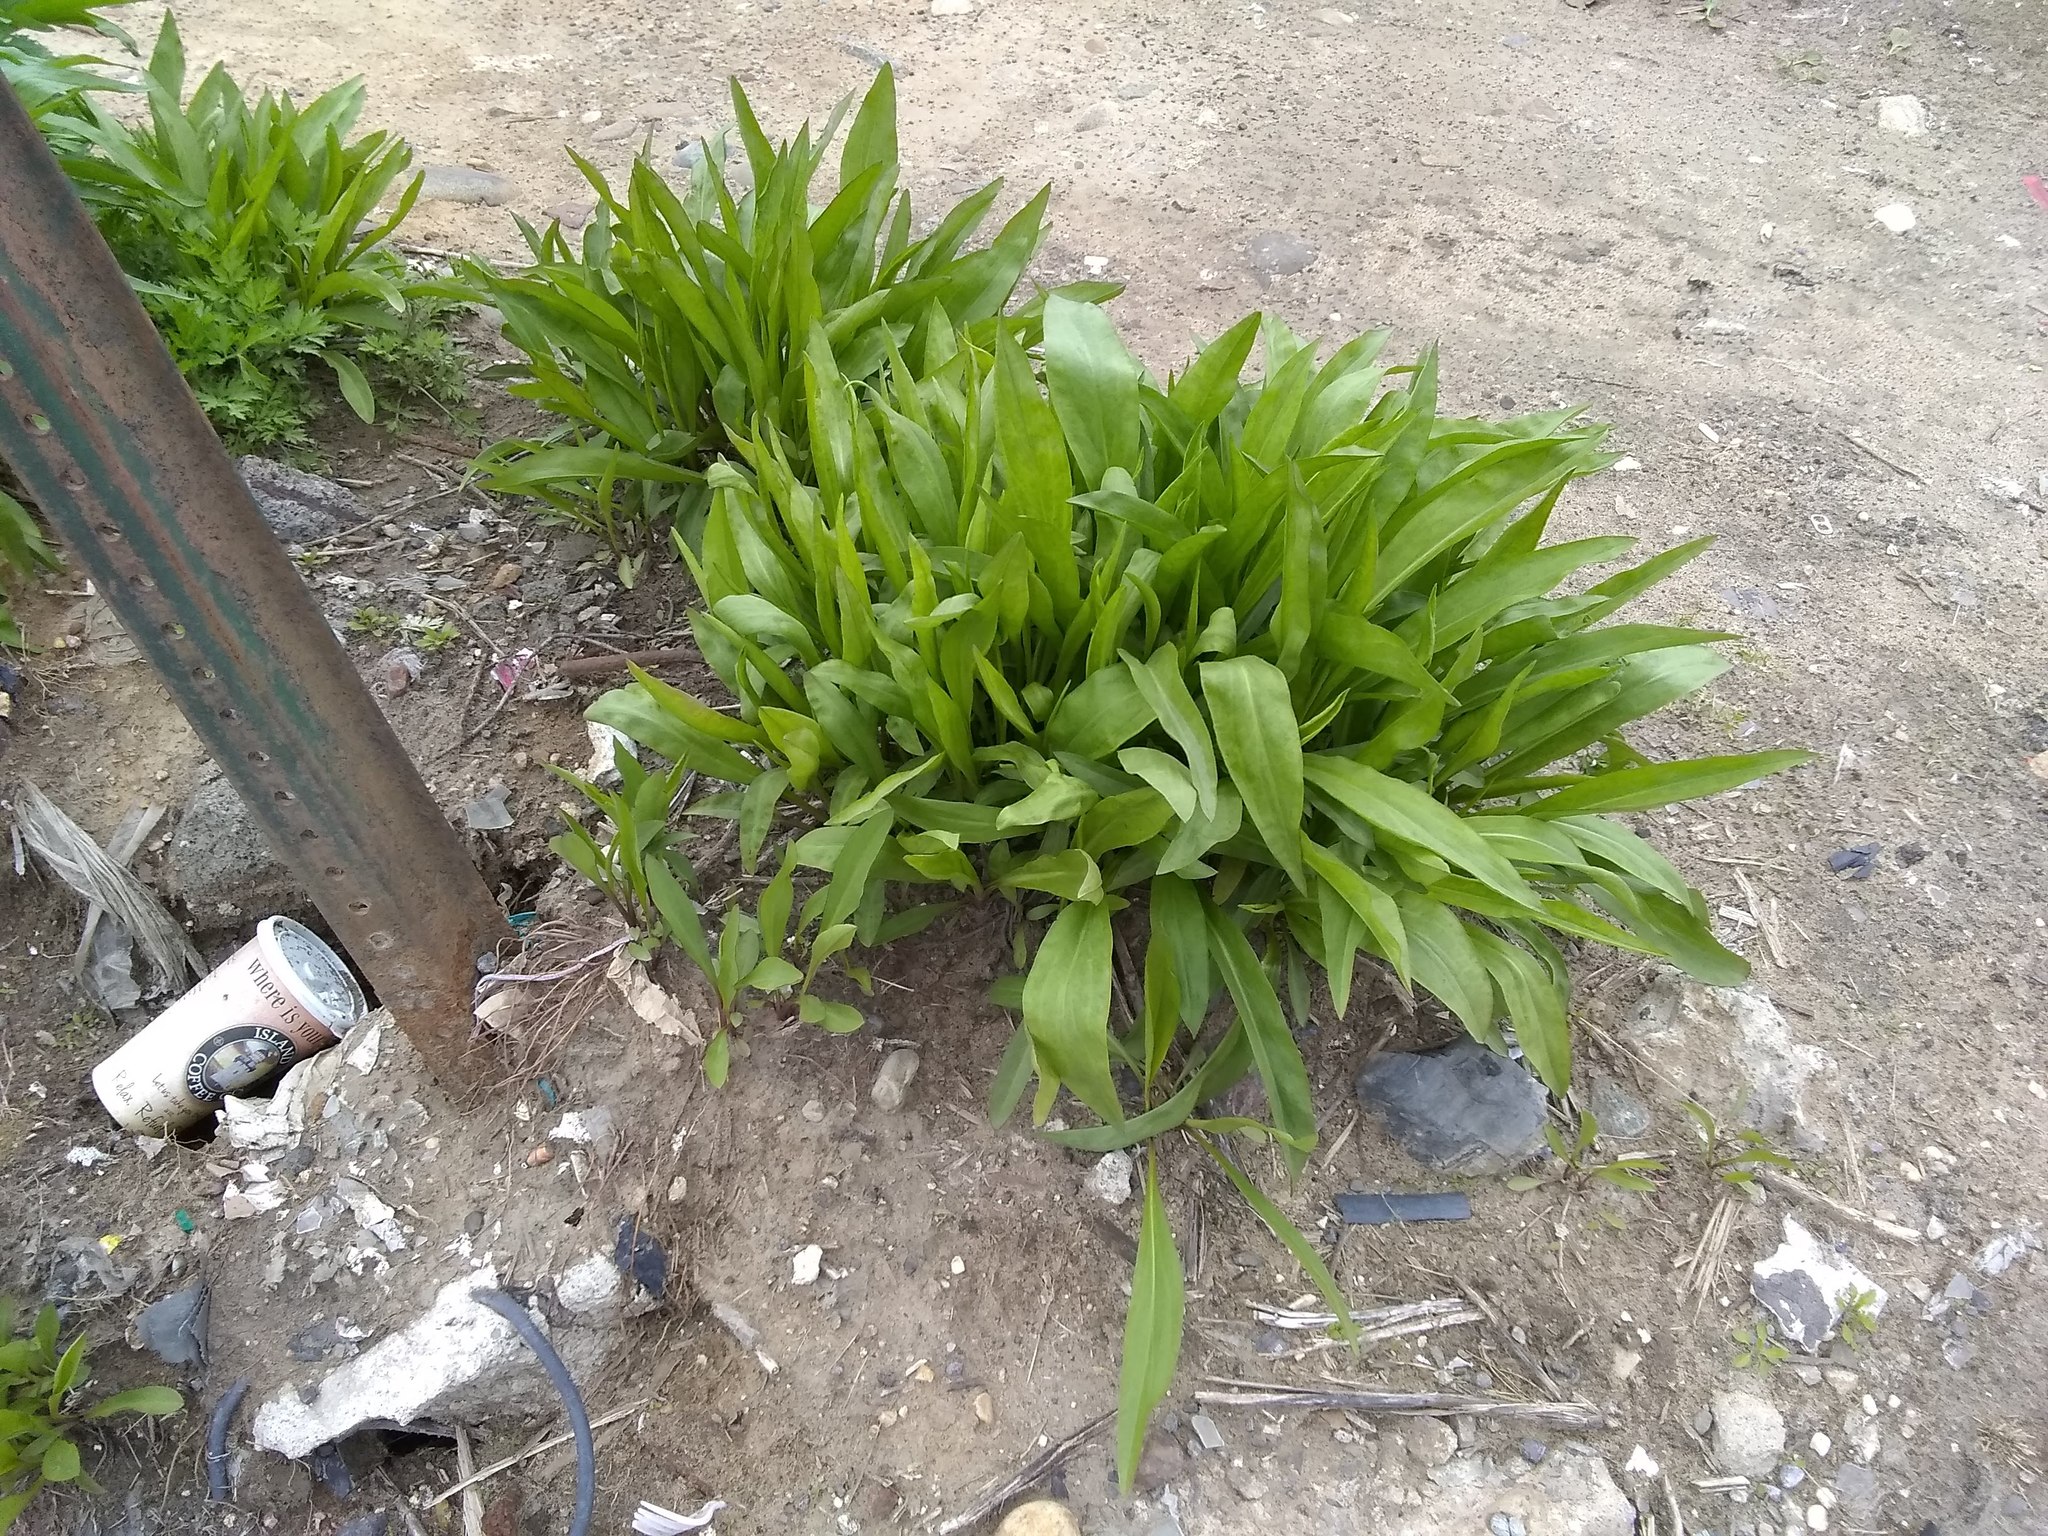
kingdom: Plantae
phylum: Tracheophyta
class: Magnoliopsida
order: Asterales
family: Asteraceae
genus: Solidago
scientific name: Solidago sempervirens
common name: Salt-marsh goldenrod
